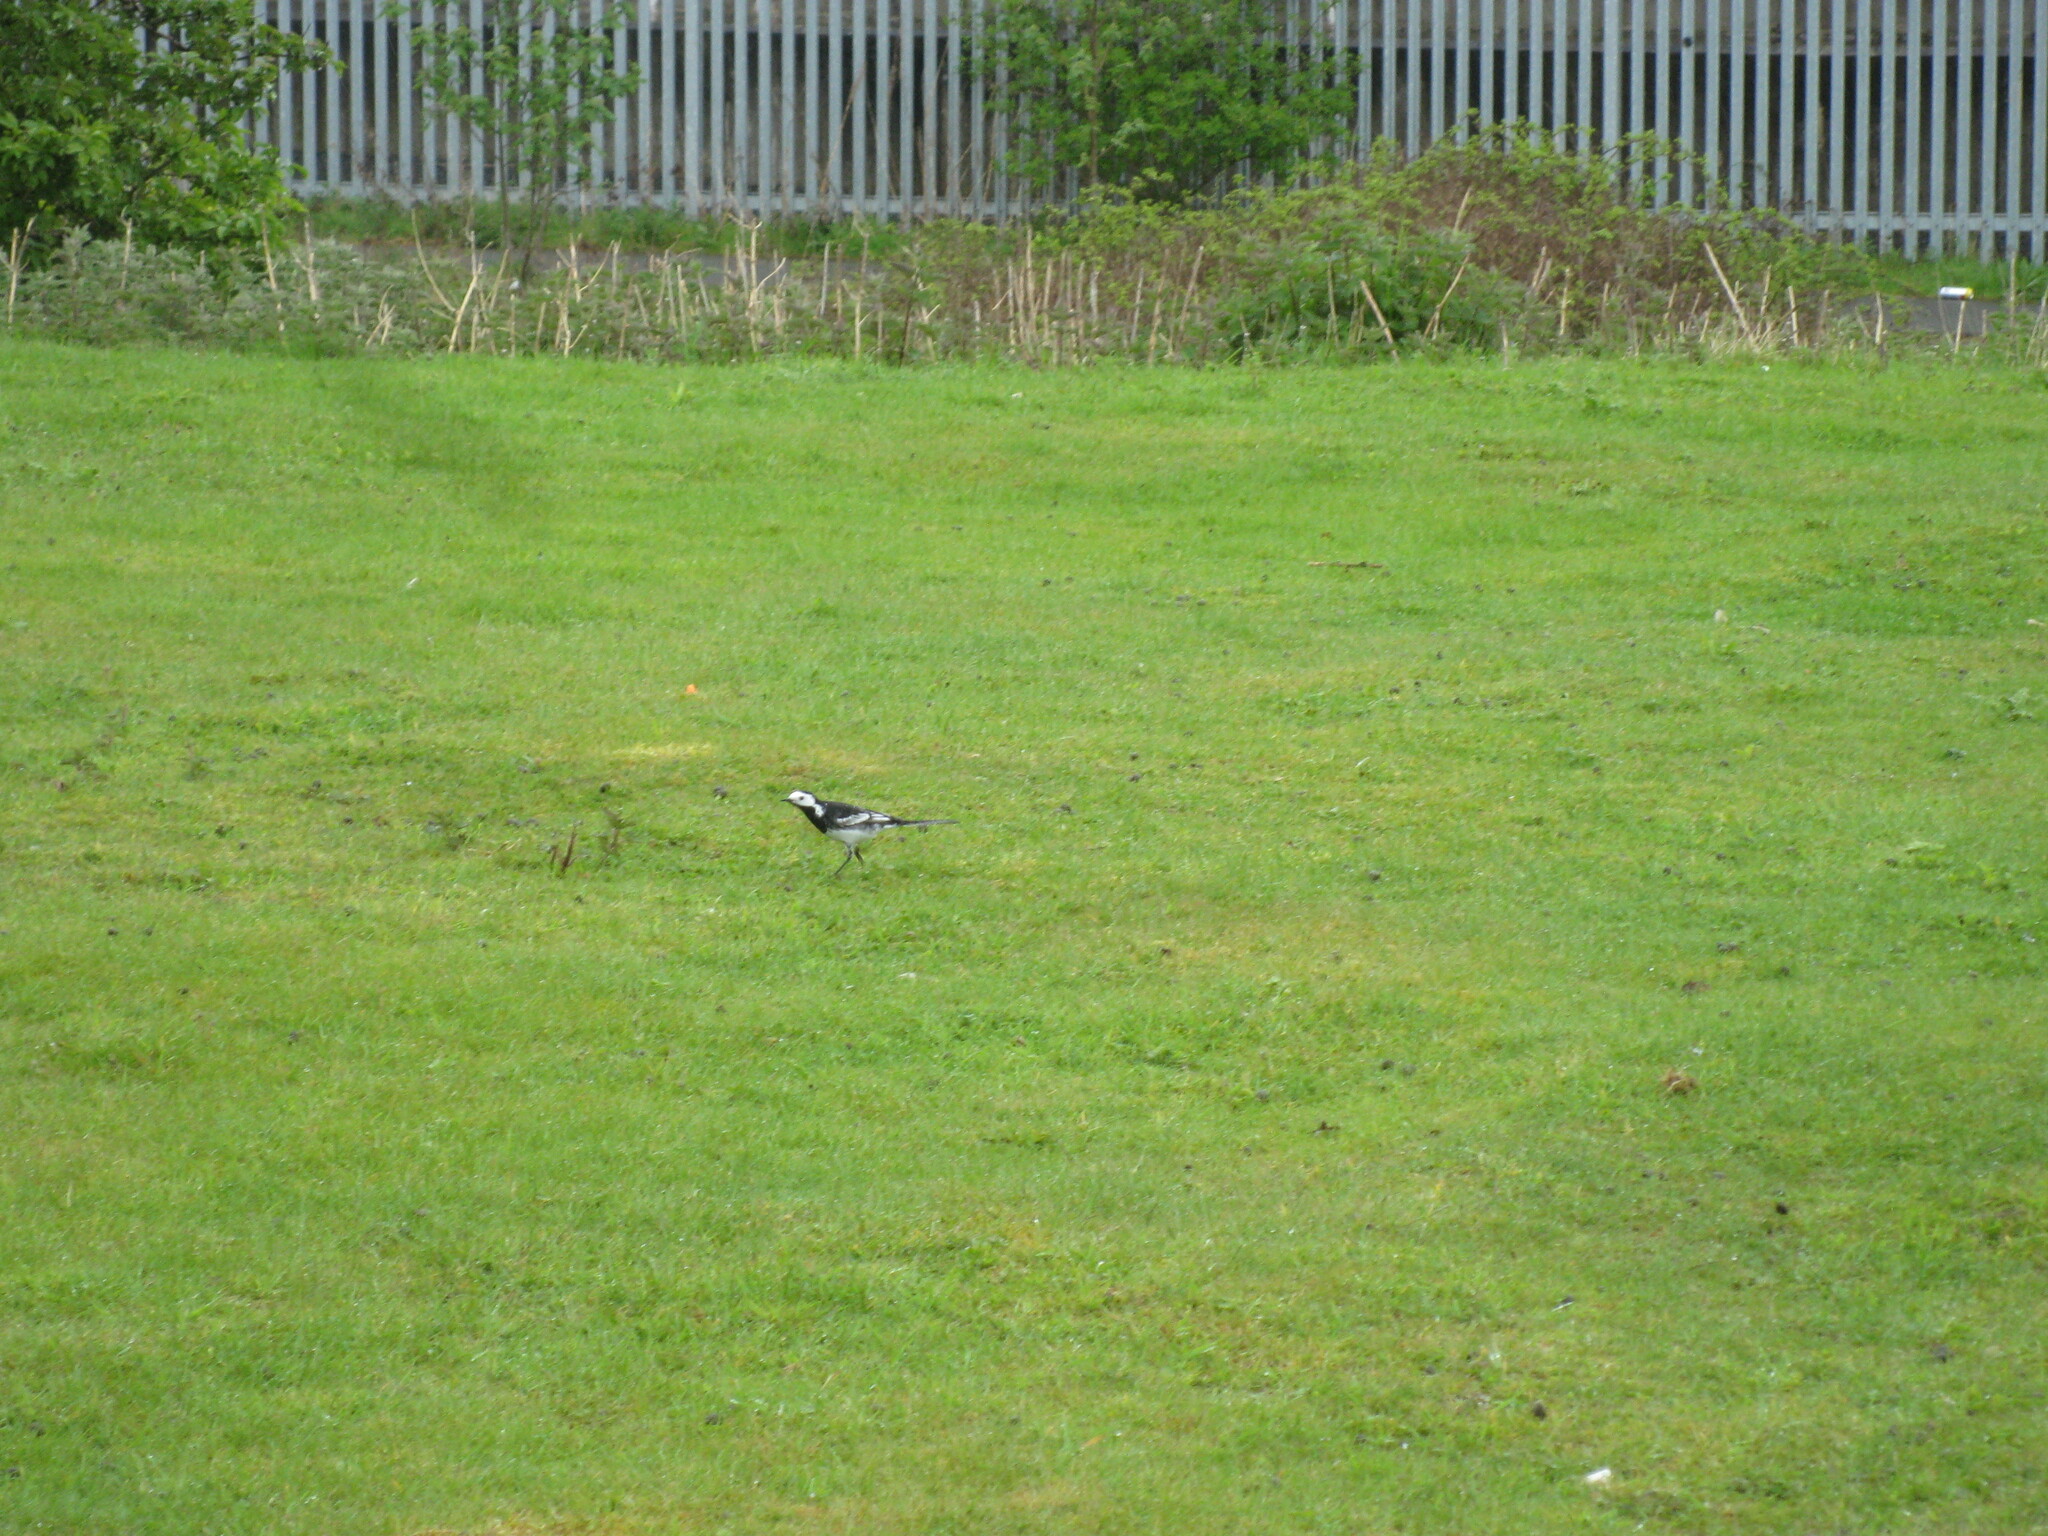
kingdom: Animalia
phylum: Chordata
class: Aves
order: Passeriformes
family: Motacillidae
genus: Motacilla
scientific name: Motacilla alba
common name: White wagtail
